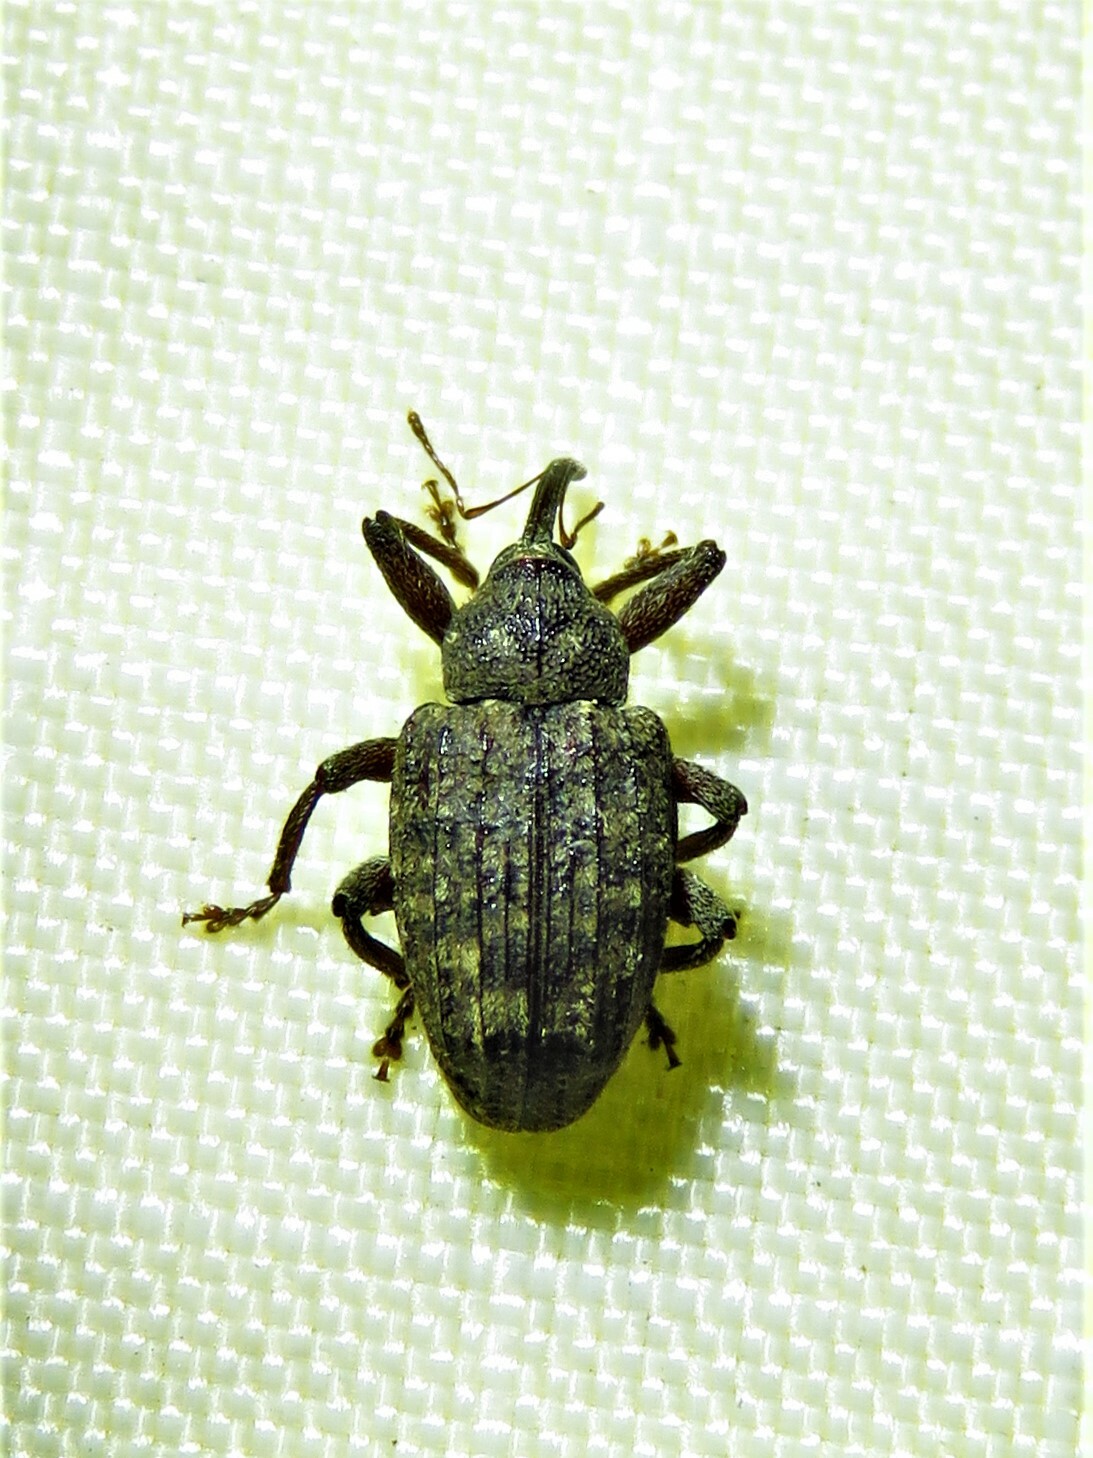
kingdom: Animalia
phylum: Arthropoda
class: Insecta
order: Coleoptera
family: Curculionidae
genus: Conotrachelus
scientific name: Conotrachelus naso
